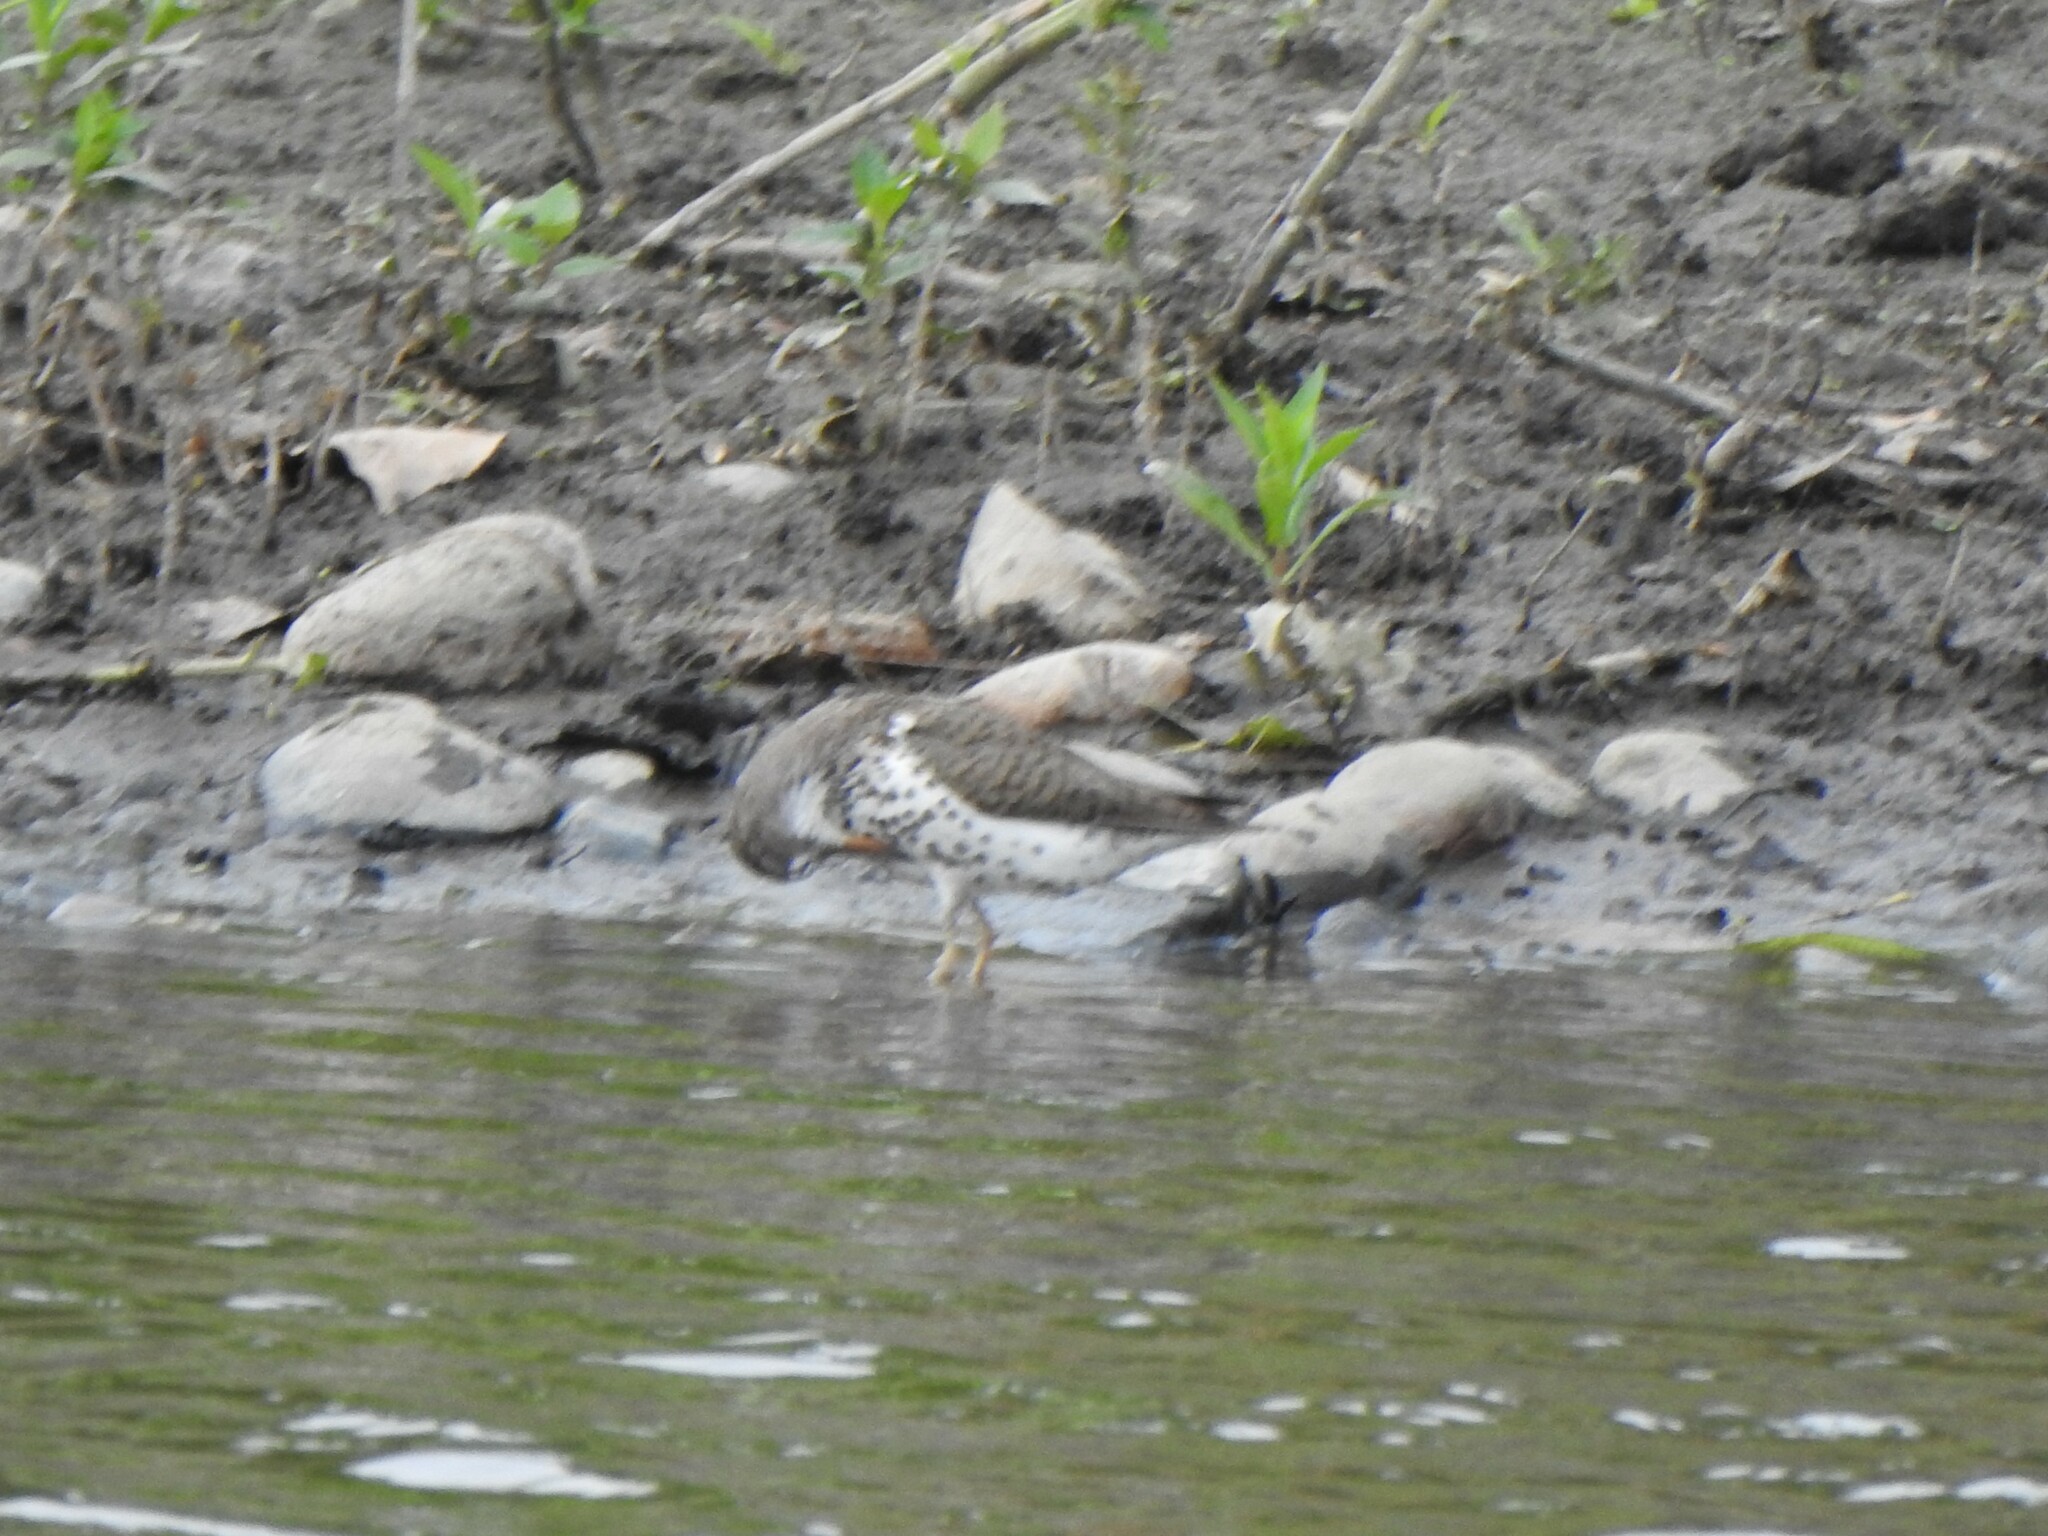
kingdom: Animalia
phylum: Chordata
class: Aves
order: Charadriiformes
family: Scolopacidae
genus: Actitis
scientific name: Actitis macularius
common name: Spotted sandpiper
